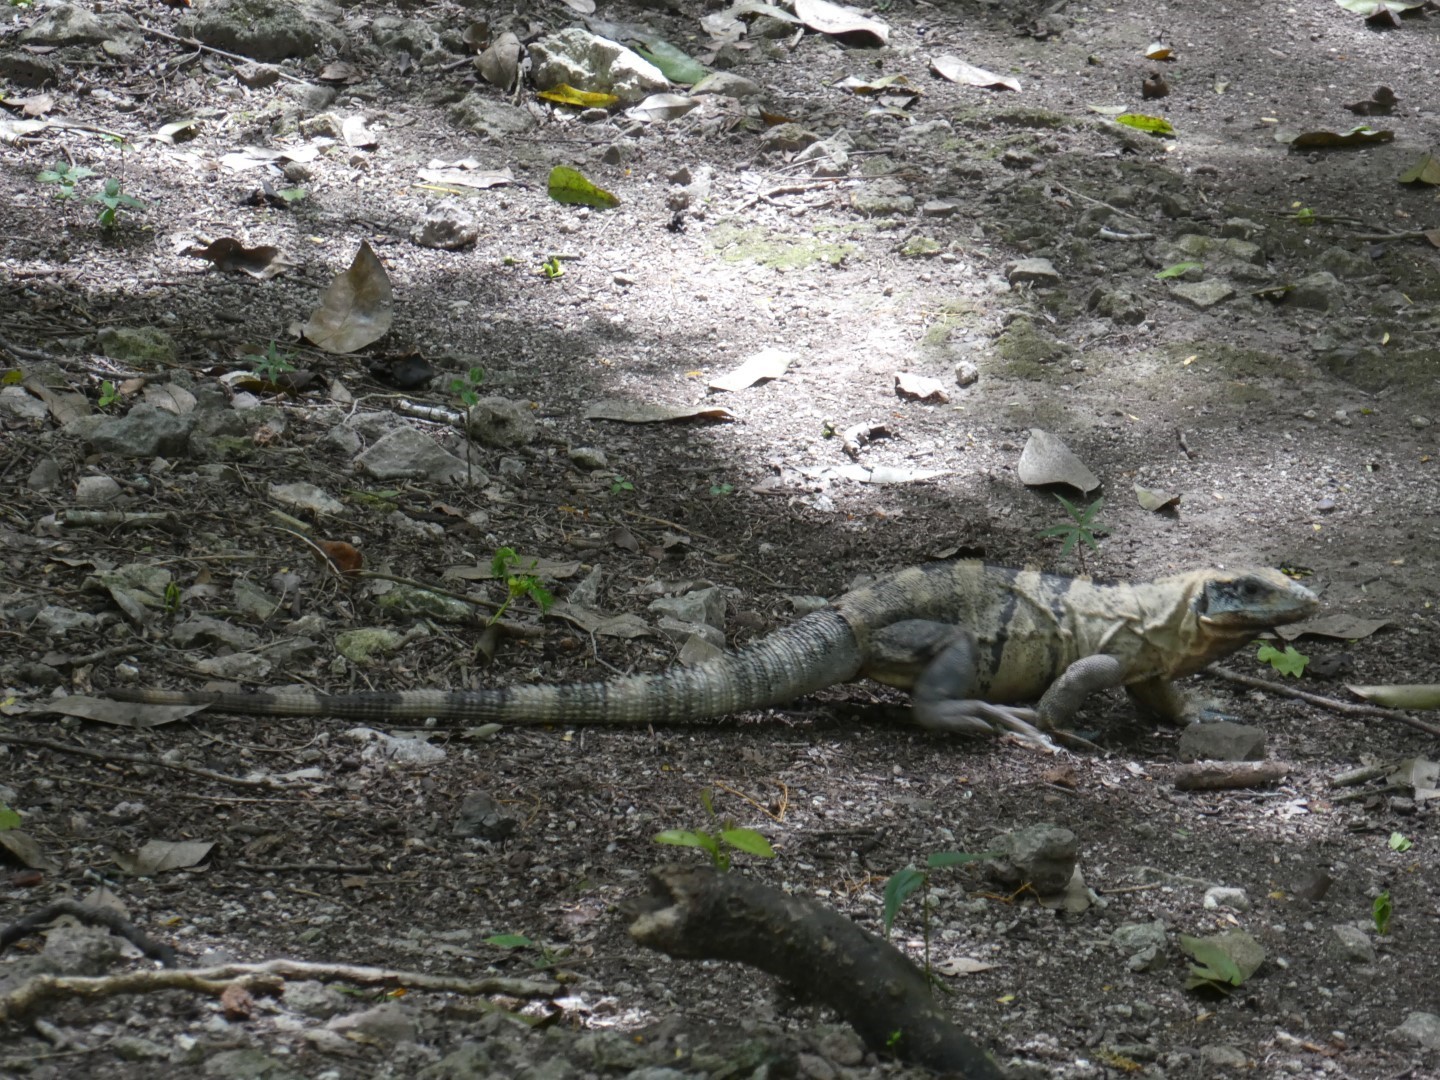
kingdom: Animalia
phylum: Chordata
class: Squamata
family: Iguanidae
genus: Ctenosaura
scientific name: Ctenosaura similis
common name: Black spiny-tailed iguana
